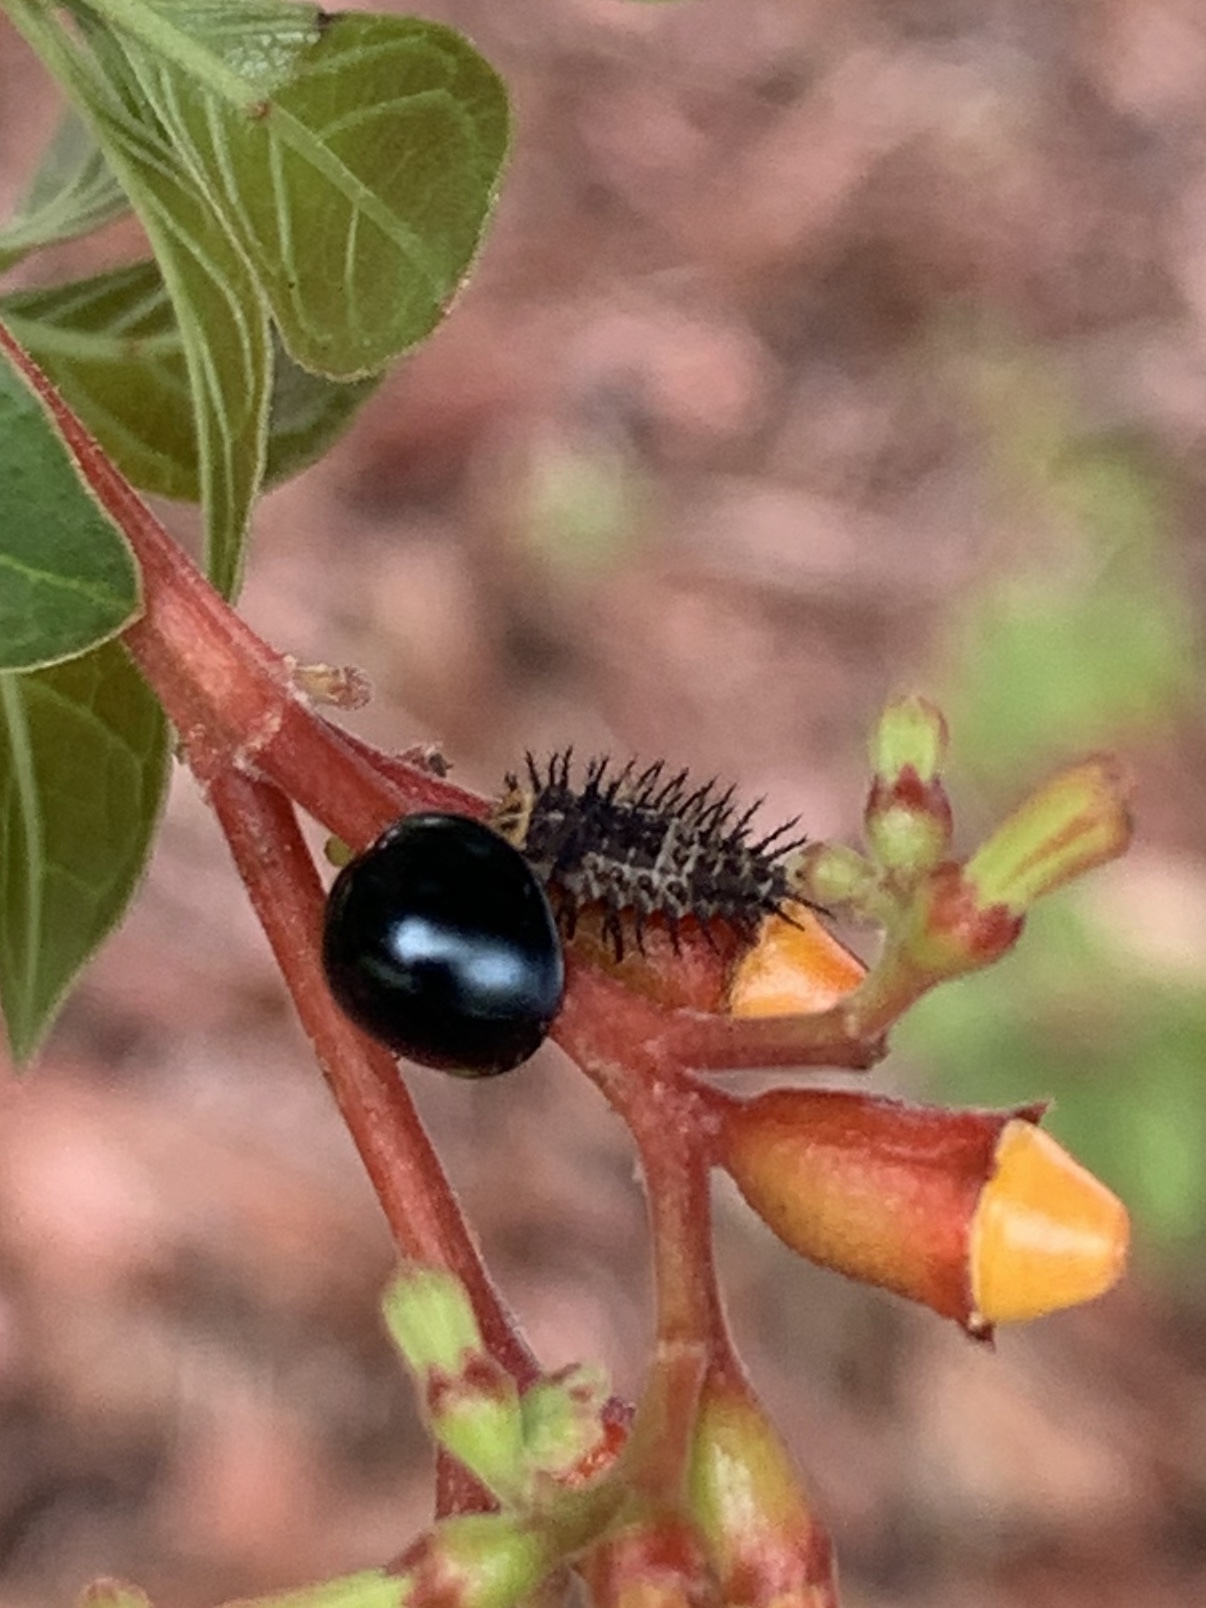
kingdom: Animalia
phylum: Arthropoda
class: Insecta
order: Coleoptera
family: Coccinellidae
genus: Curinus
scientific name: Curinus coeruleus
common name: Ladybird beetle
